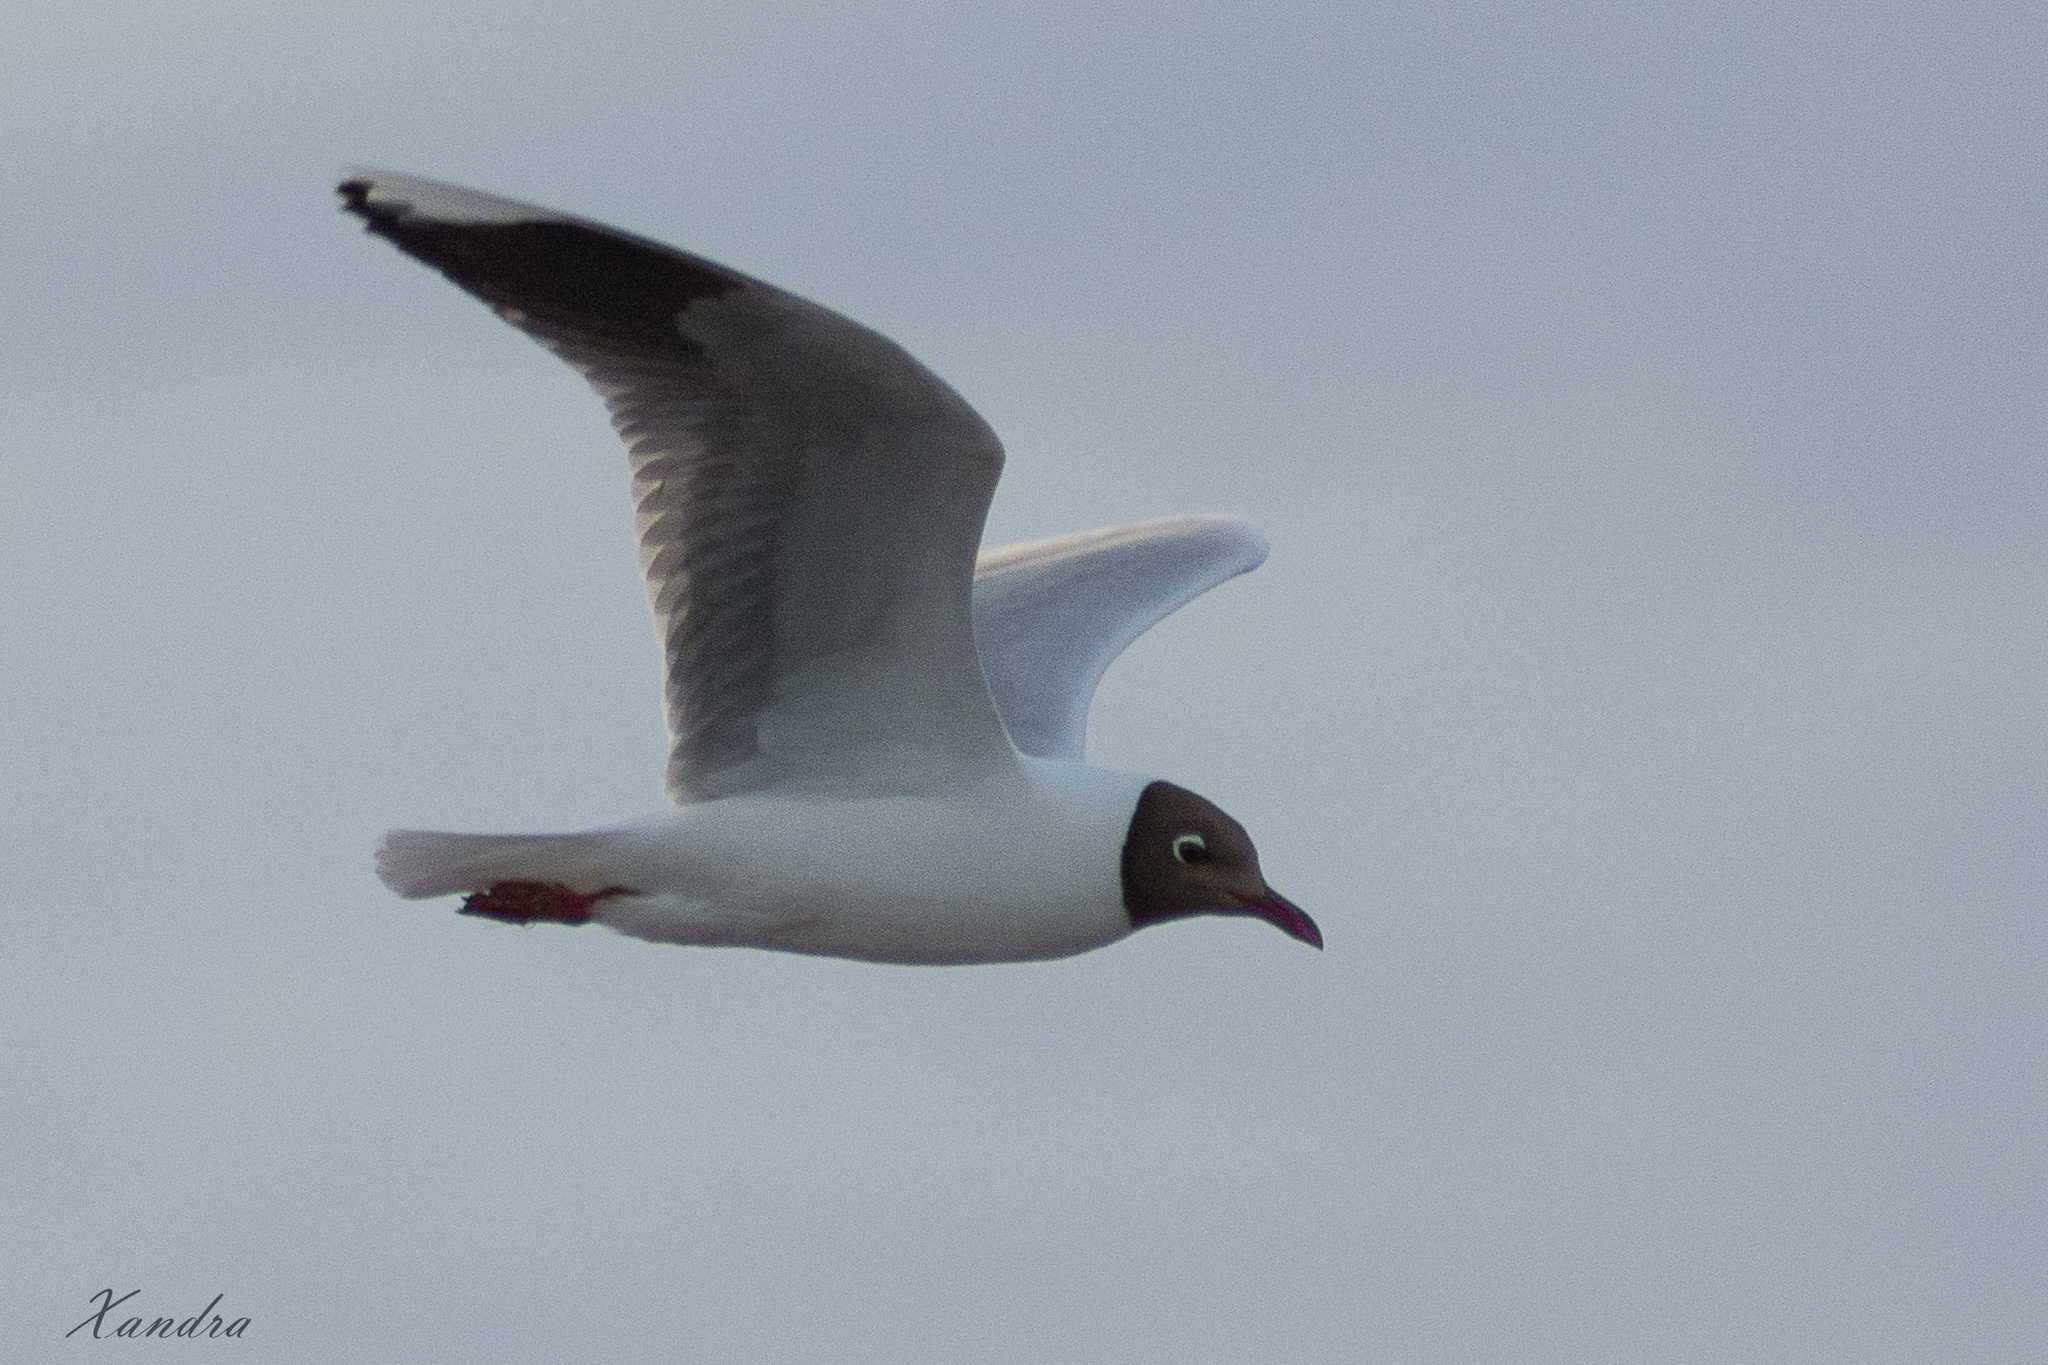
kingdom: Animalia
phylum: Chordata
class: Aves
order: Charadriiformes
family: Laridae
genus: Chroicocephalus
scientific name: Chroicocephalus maculipennis
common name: Brown-hooded gull
